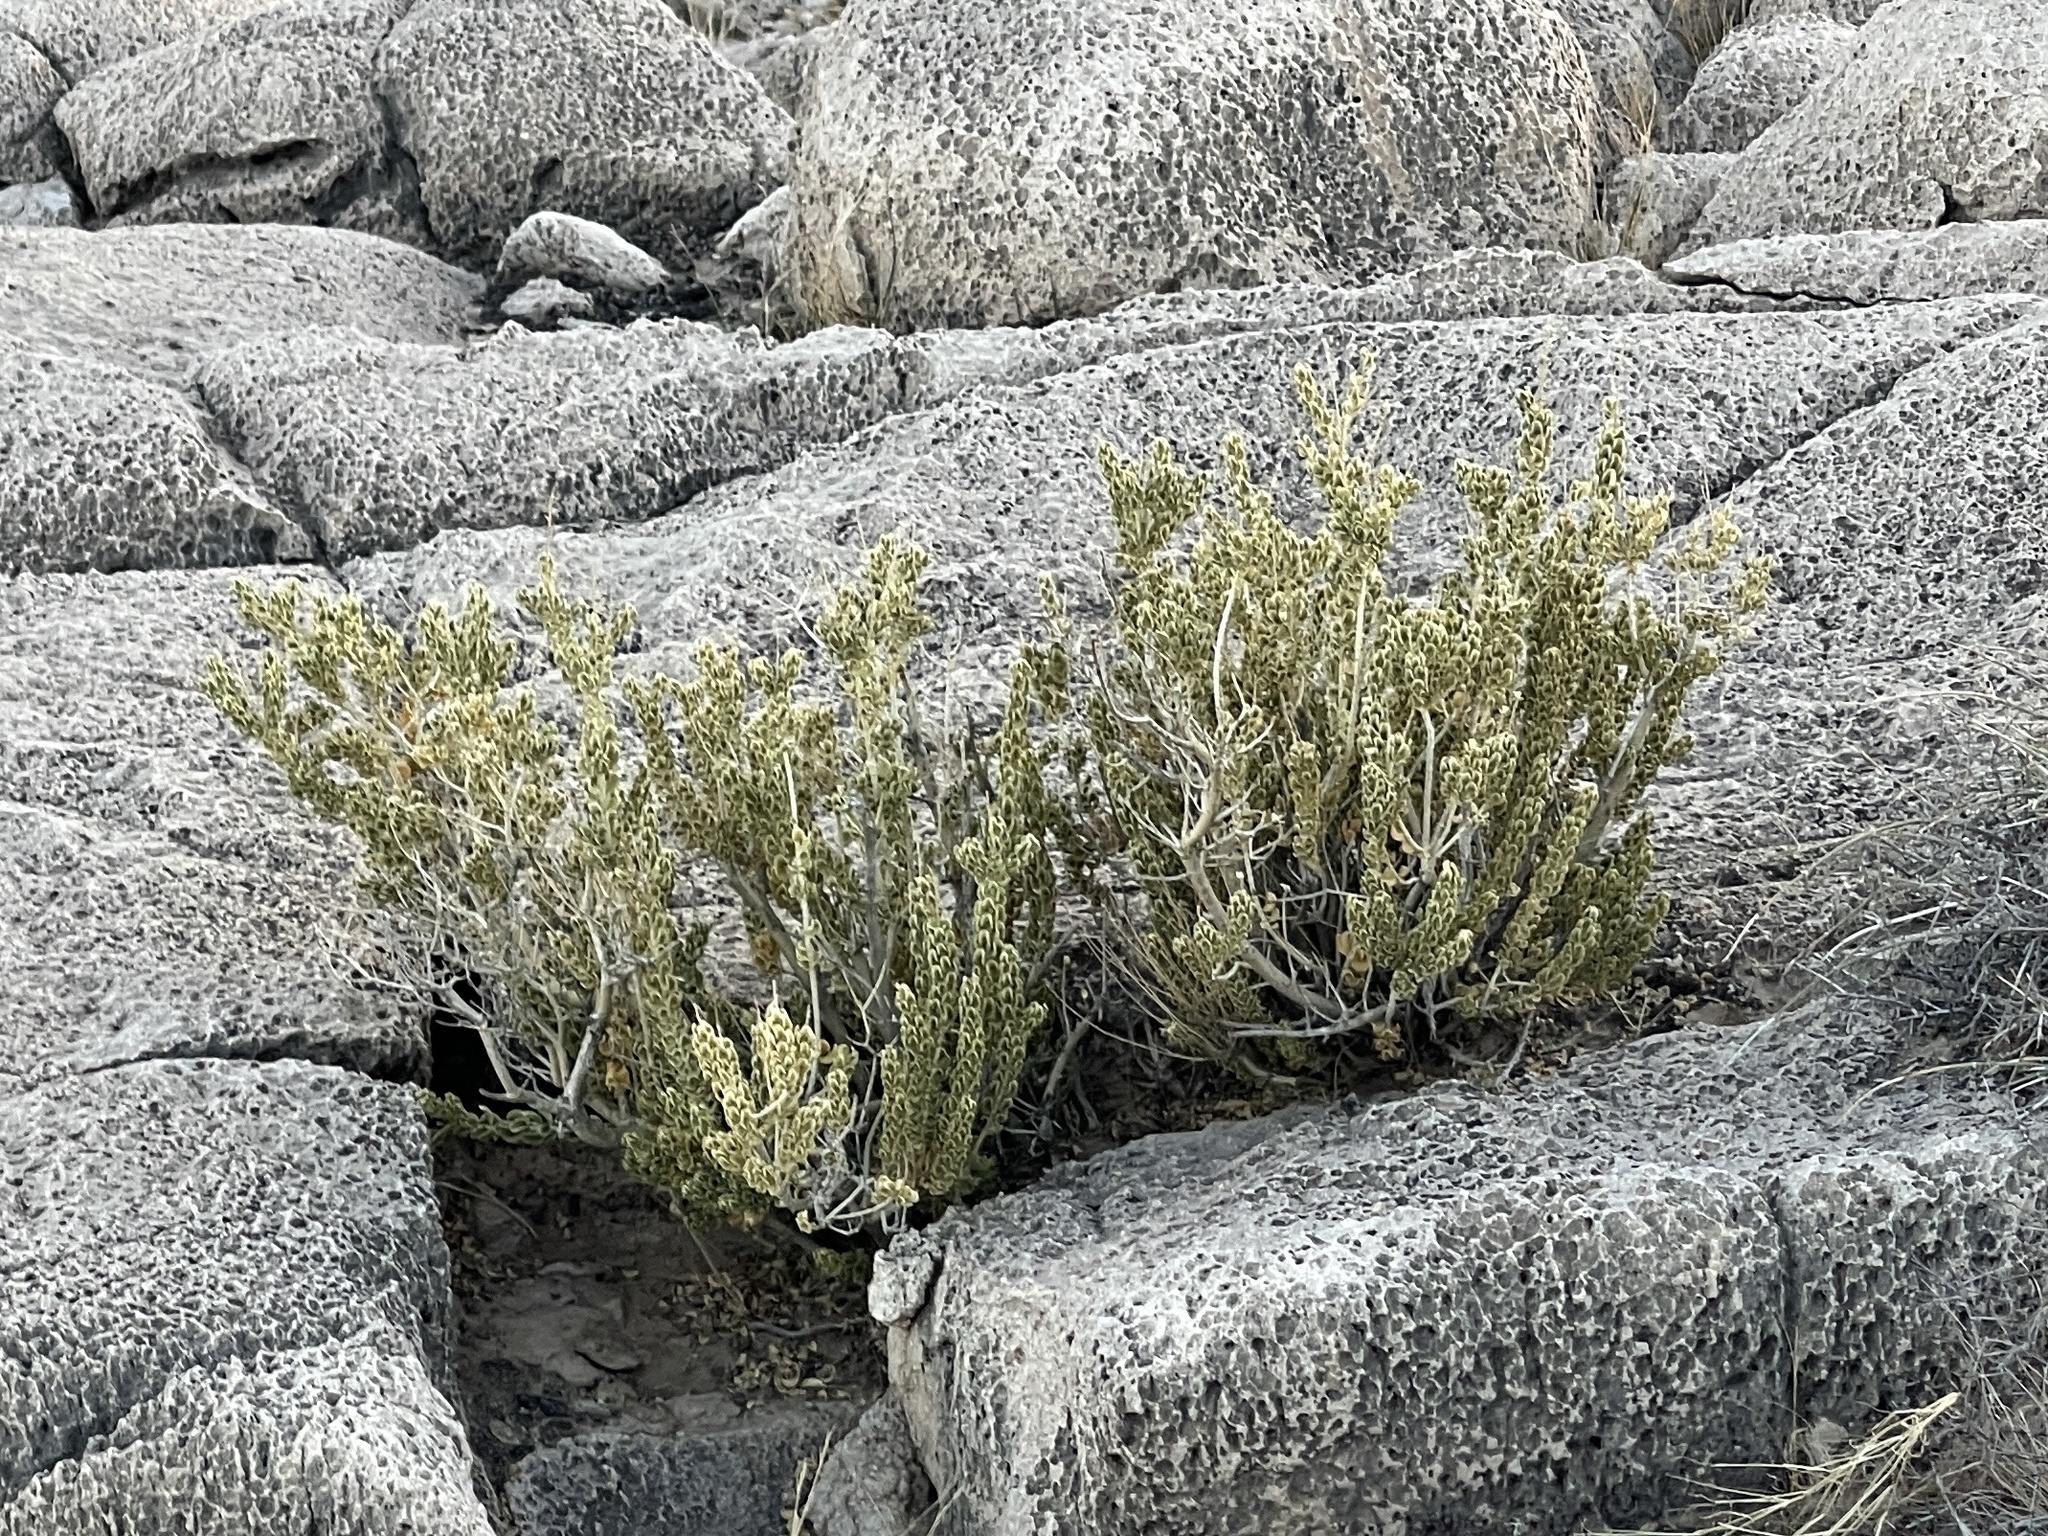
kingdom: Plantae
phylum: Tracheophyta
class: Magnoliopsida
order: Celastrales
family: Celastraceae
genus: Mortonia
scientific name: Mortonia utahensis
